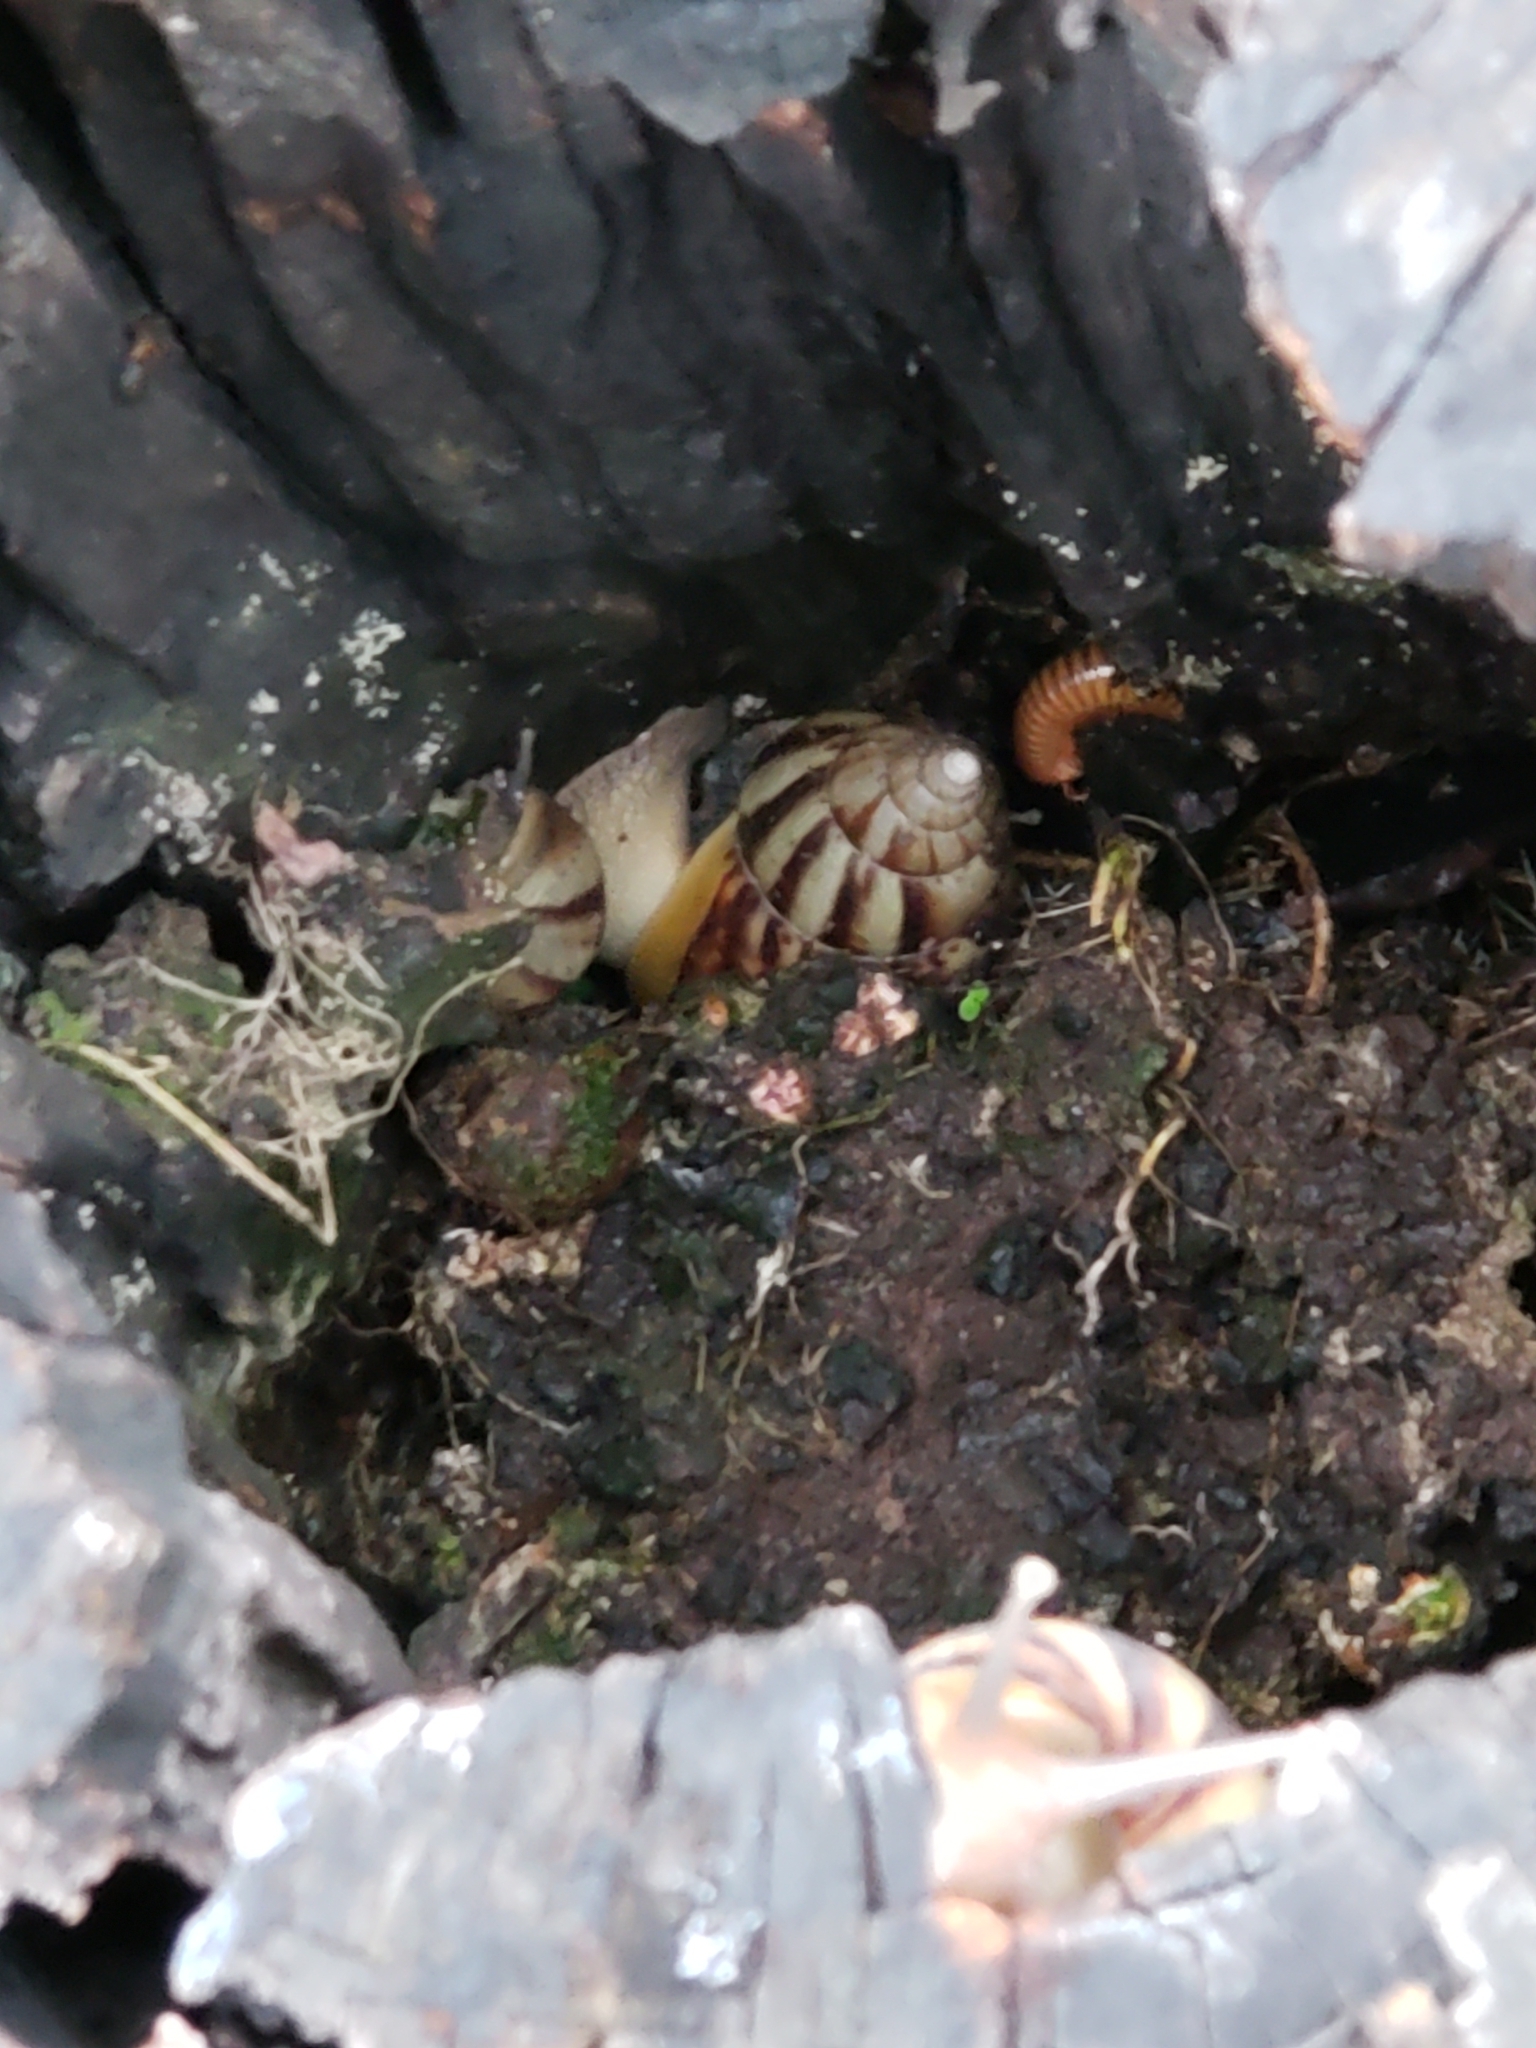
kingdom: Animalia
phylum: Mollusca
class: Gastropoda
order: Stylommatophora
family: Achatinidae
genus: Lissachatina
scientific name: Lissachatina fulica
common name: Giant african snail
